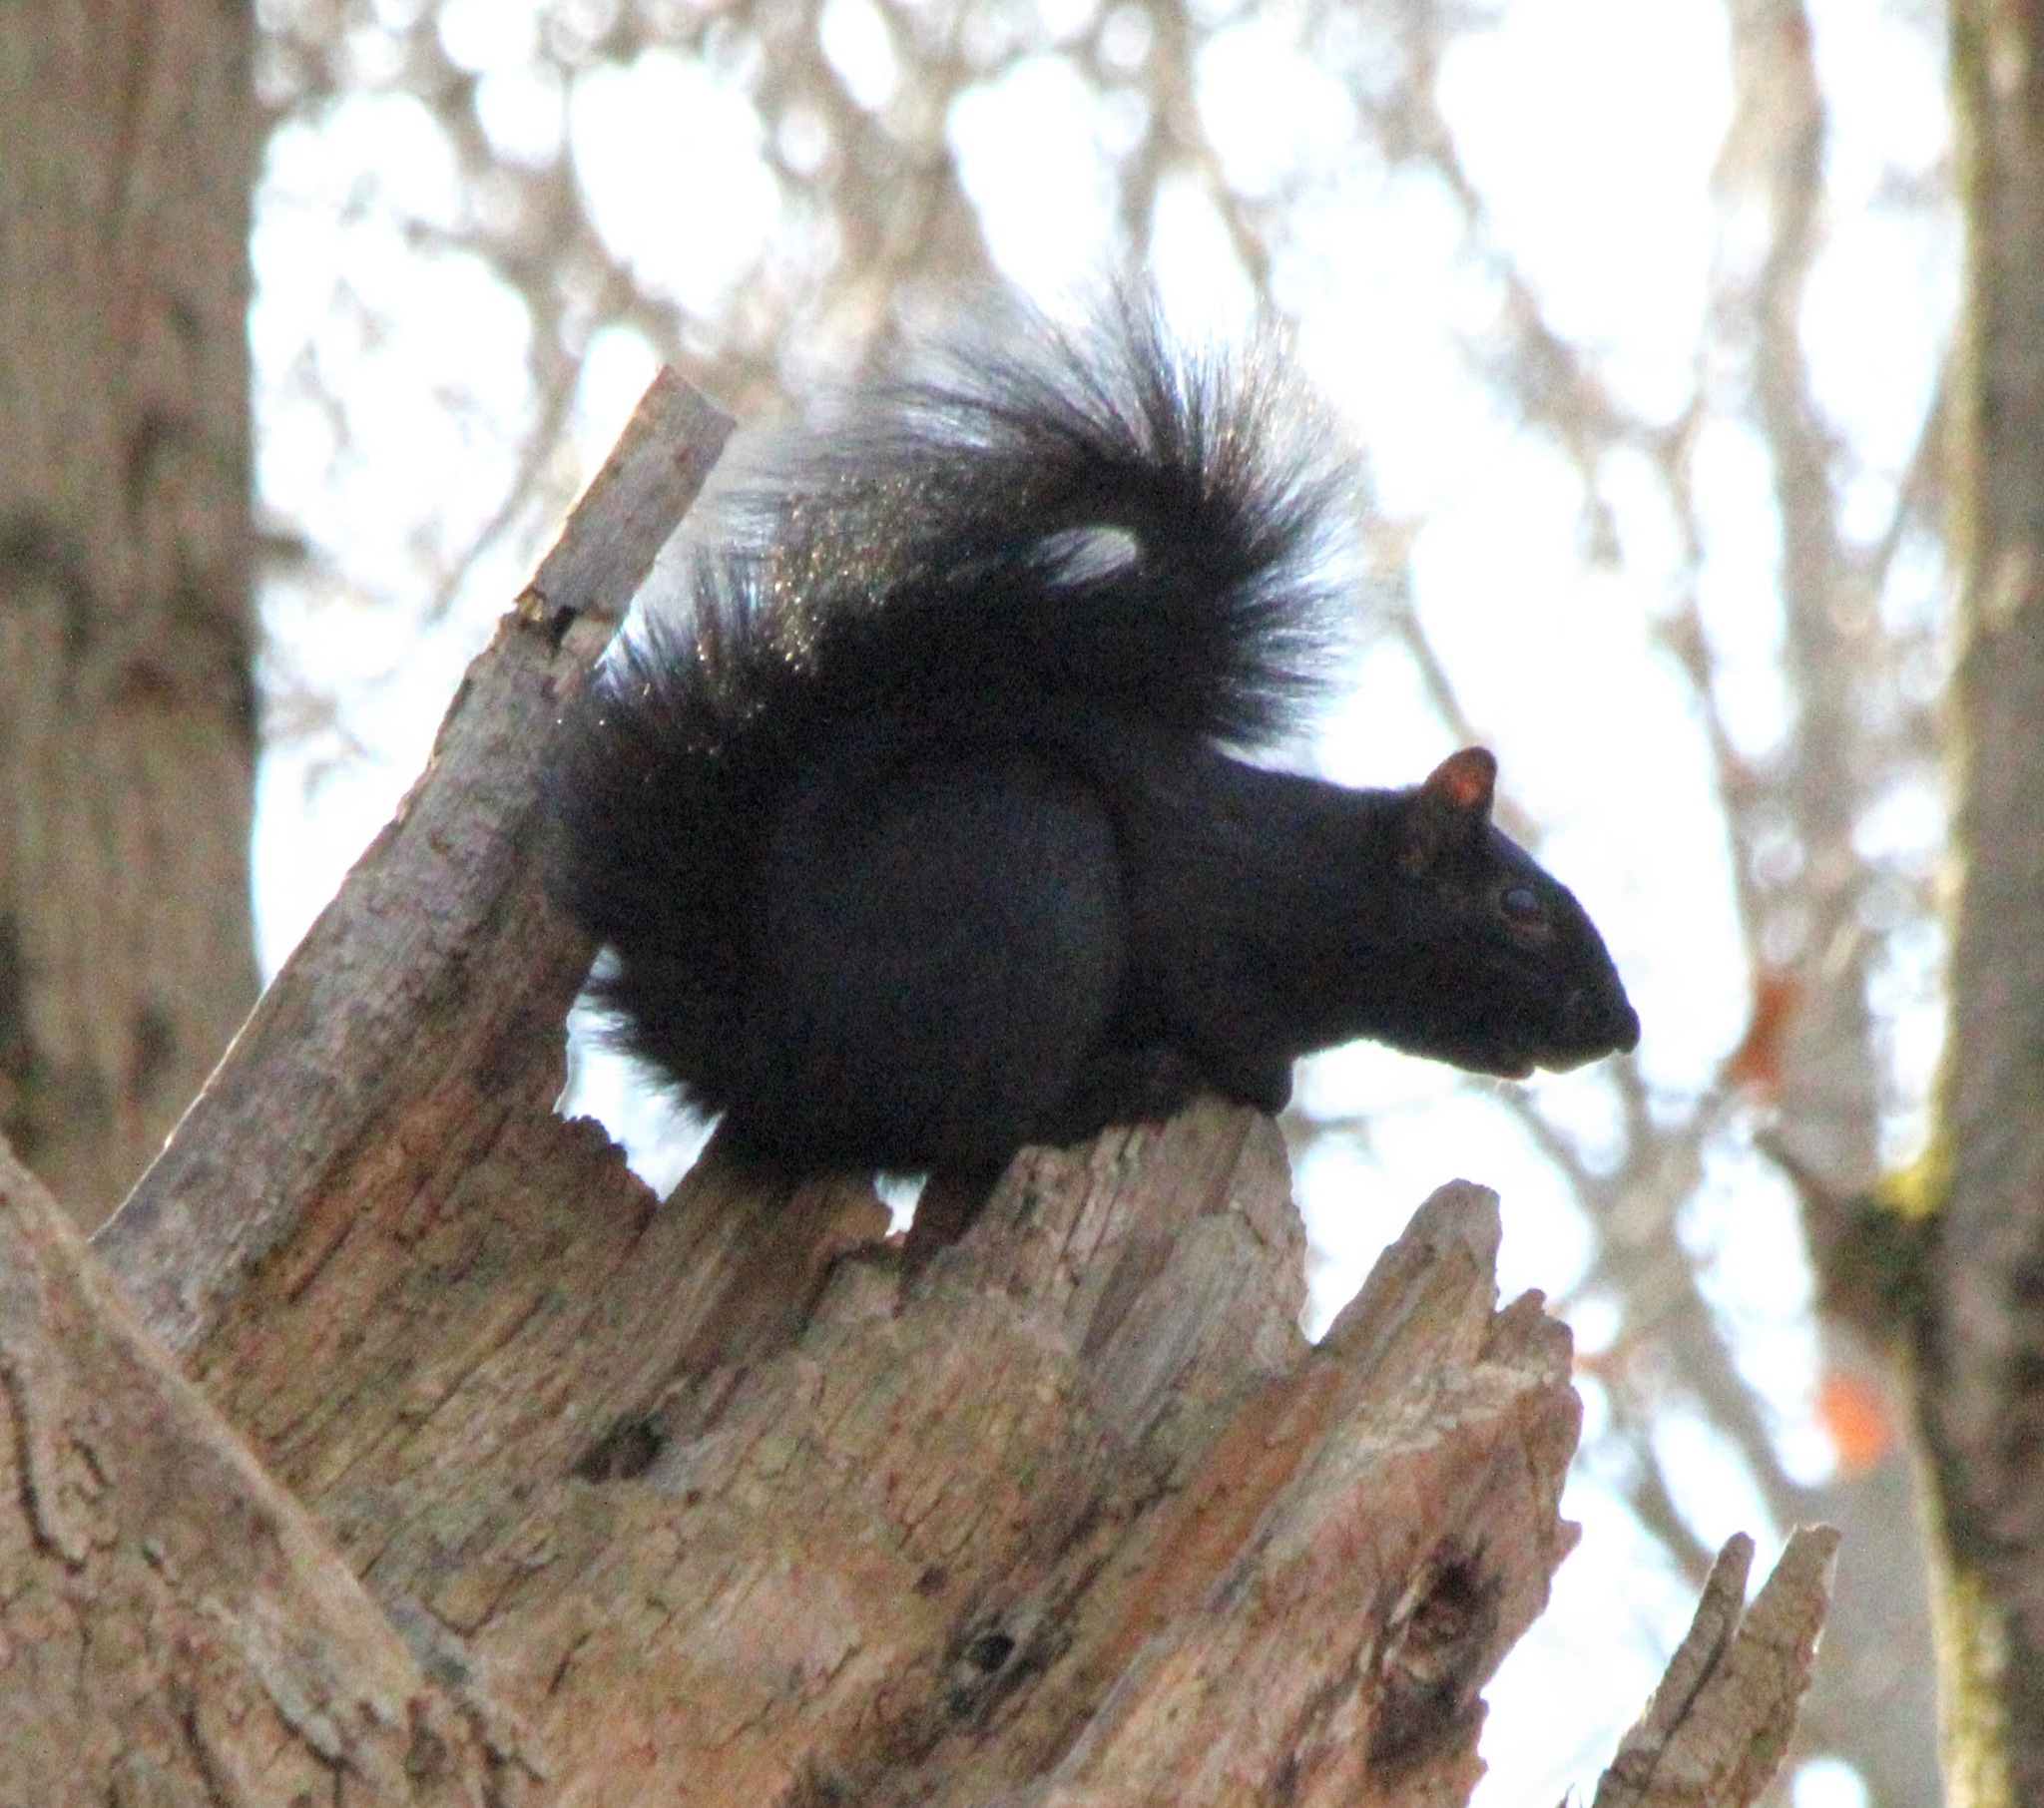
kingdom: Animalia
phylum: Chordata
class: Mammalia
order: Rodentia
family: Sciuridae
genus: Sciurus
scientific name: Sciurus carolinensis
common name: Eastern gray squirrel
